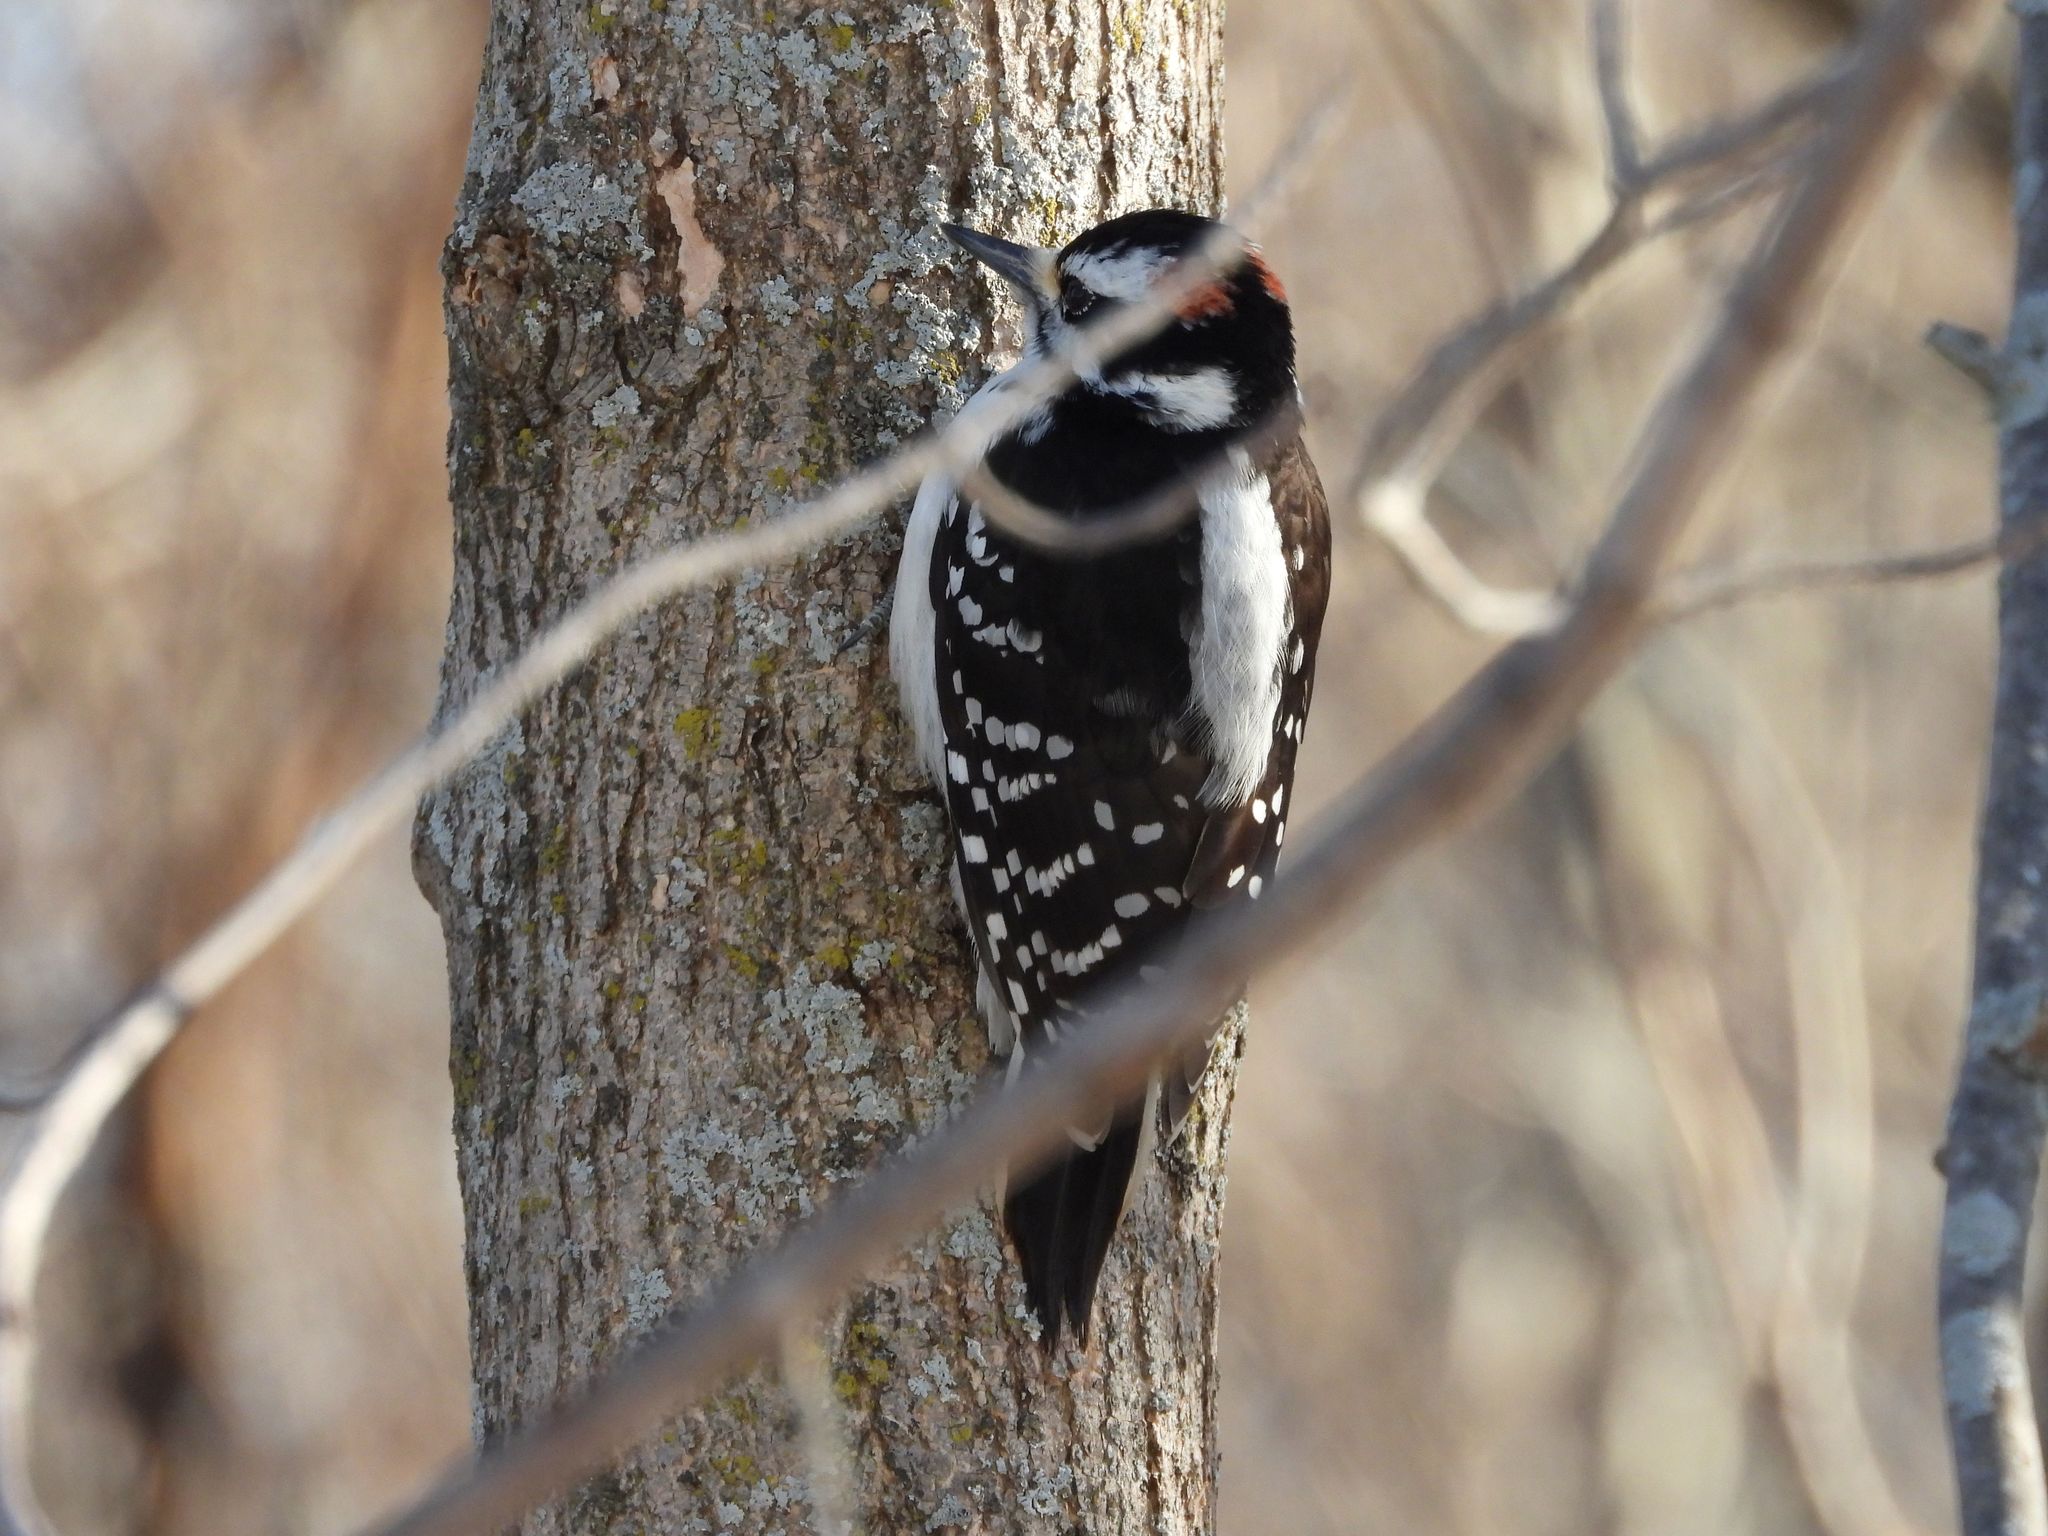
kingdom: Animalia
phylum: Chordata
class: Aves
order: Piciformes
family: Picidae
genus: Leuconotopicus
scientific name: Leuconotopicus villosus
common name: Hairy woodpecker
